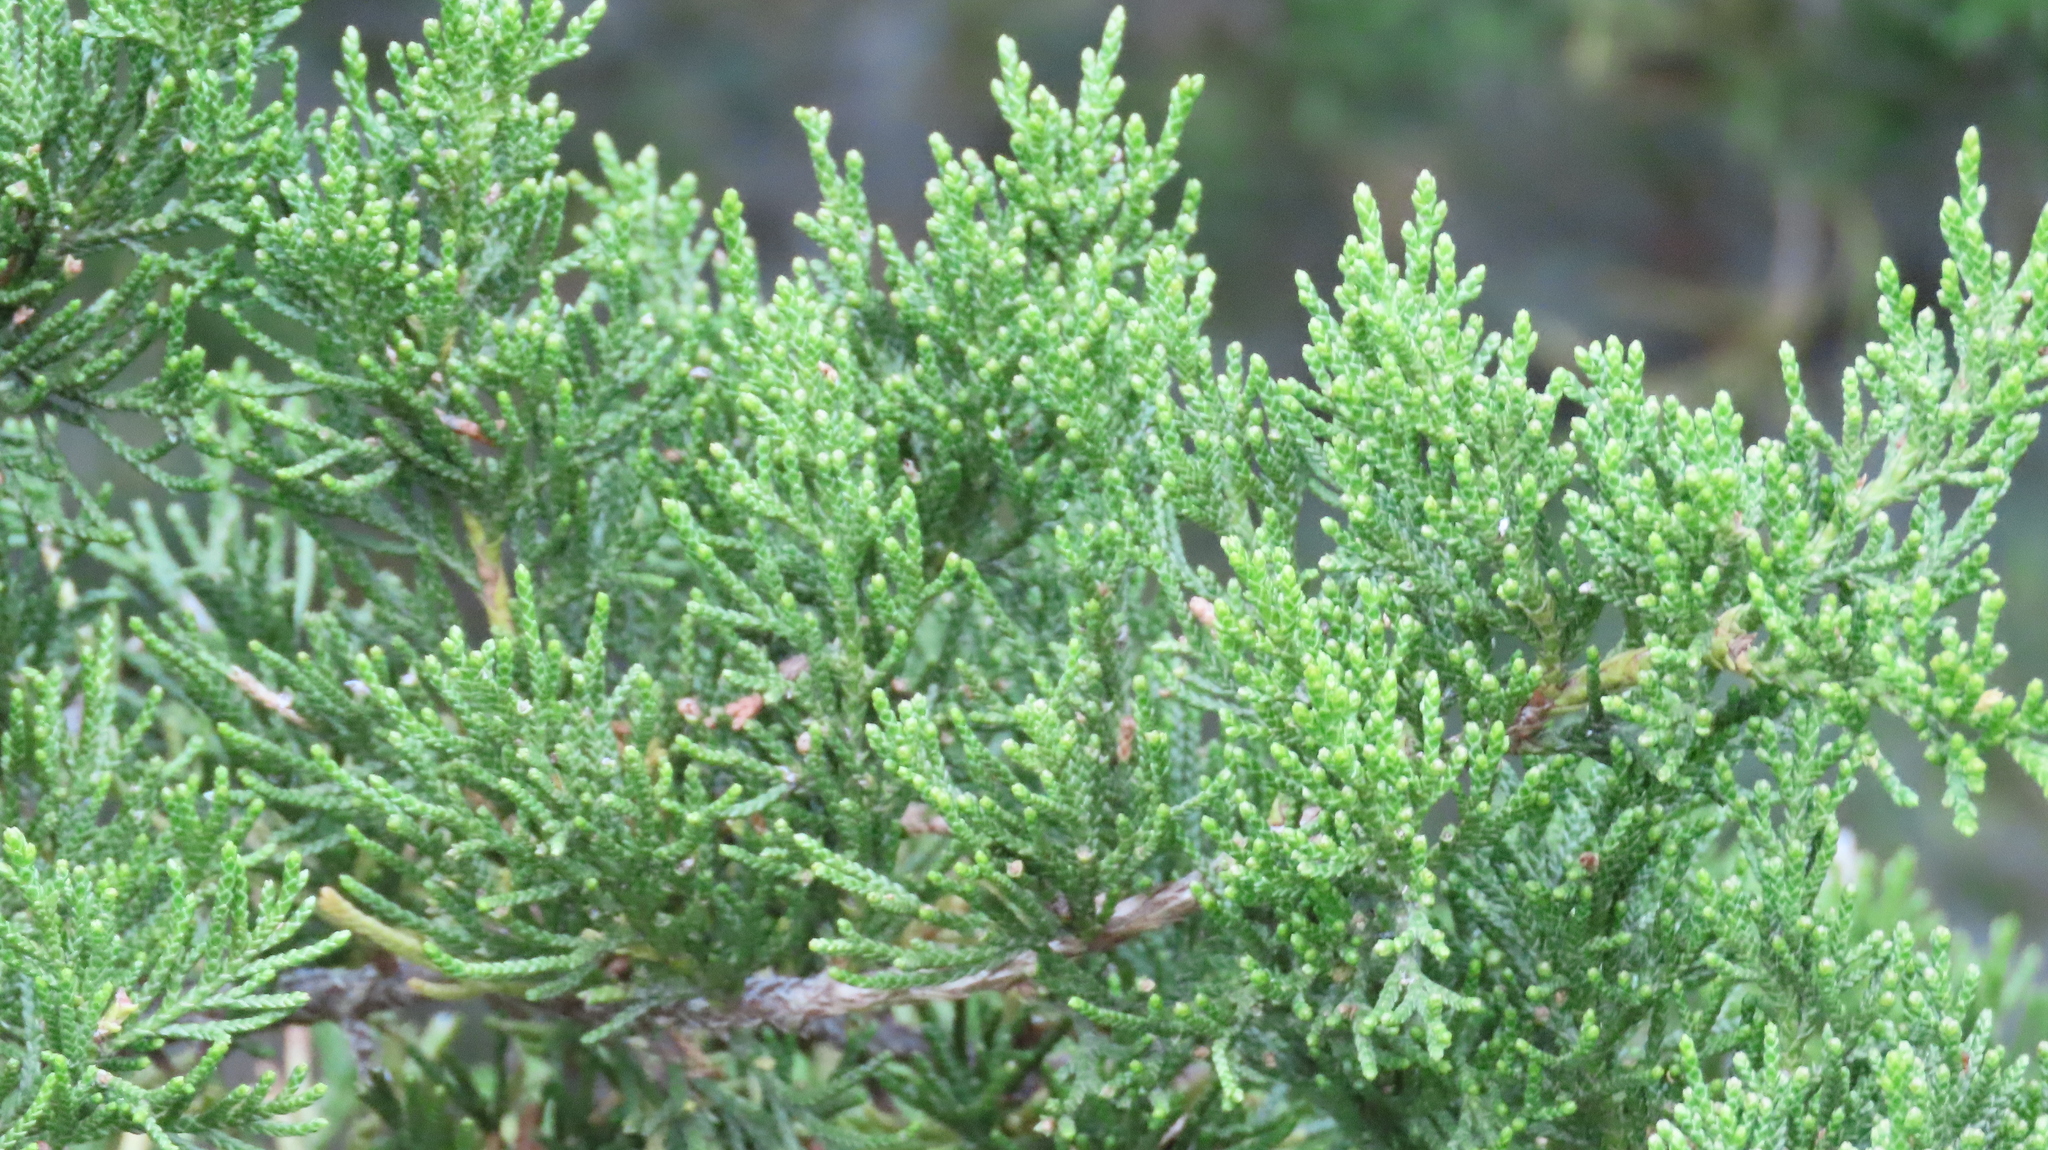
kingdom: Plantae
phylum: Tracheophyta
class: Pinopsida
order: Pinales
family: Cupressaceae
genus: Juniperus
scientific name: Juniperus virginiana
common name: Red juniper
